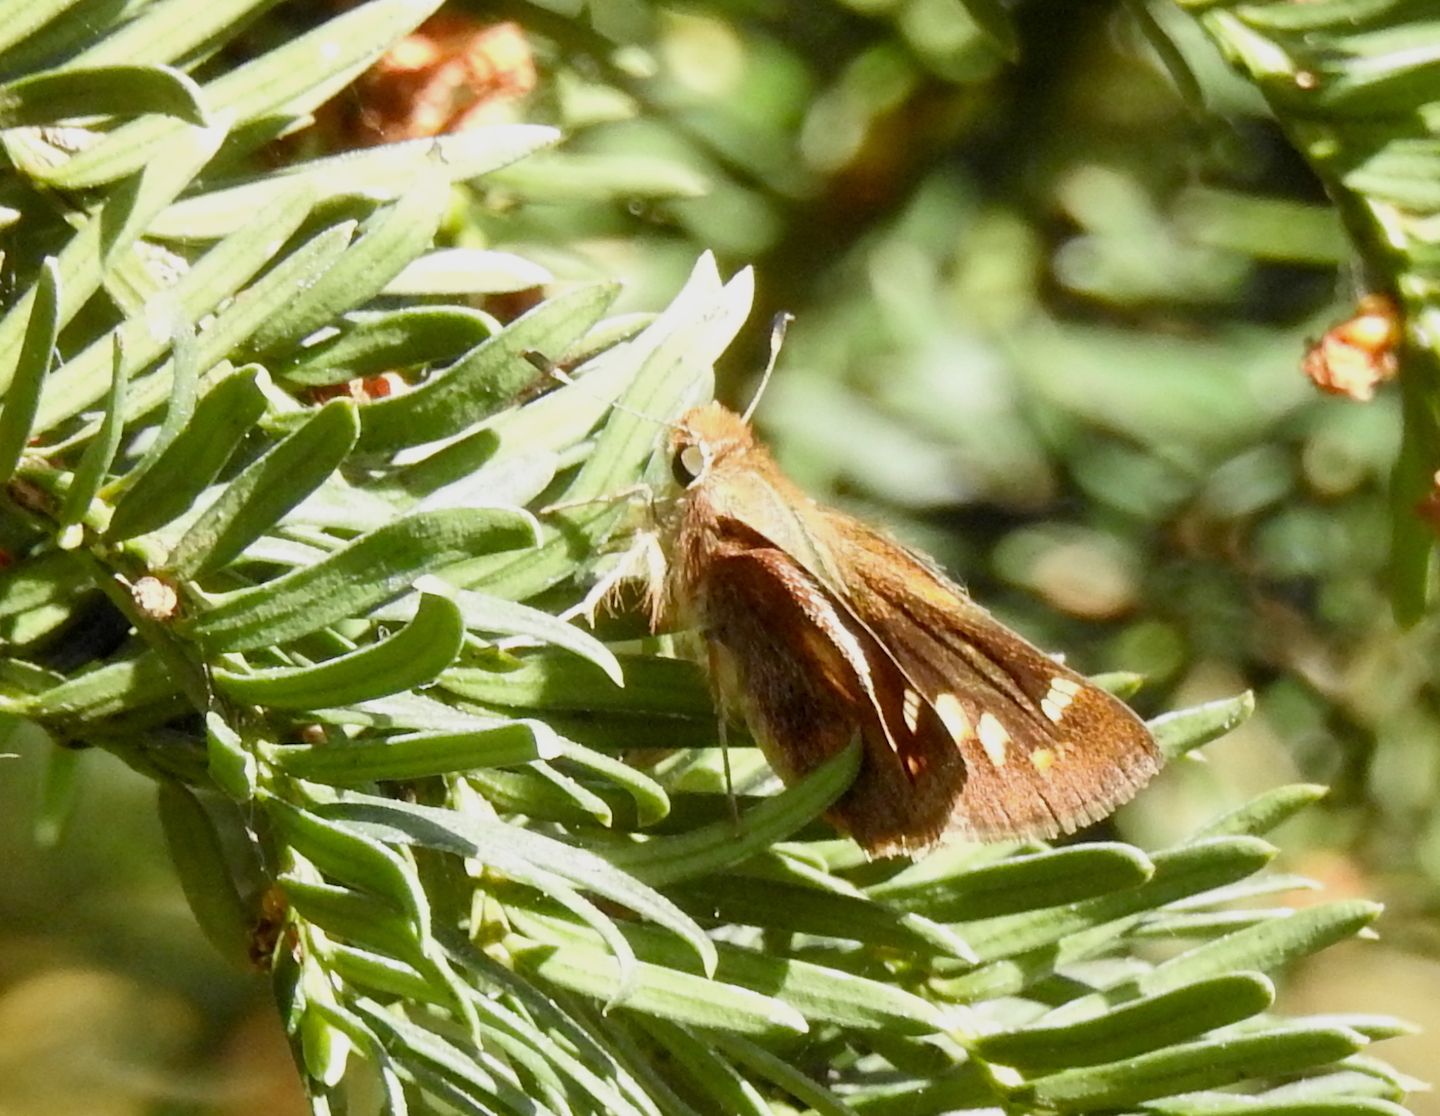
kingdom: Animalia
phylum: Arthropoda
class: Insecta
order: Lepidoptera
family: Hesperiidae
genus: Lon
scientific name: Lon melane
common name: Umber skipper
